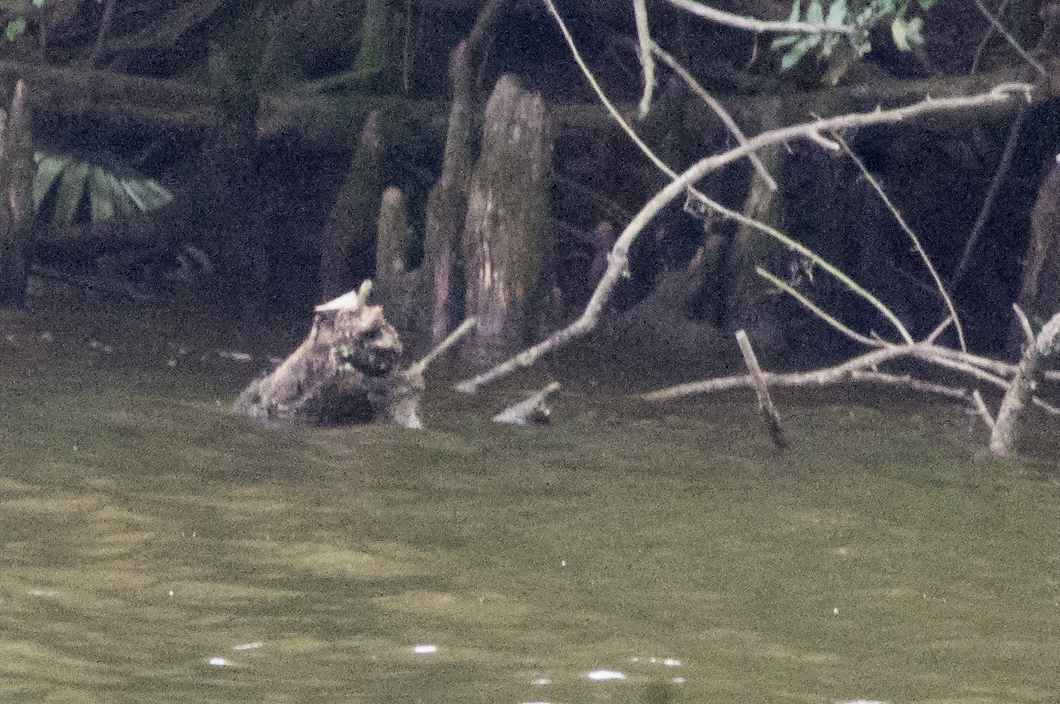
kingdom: Animalia
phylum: Chordata
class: Testudines
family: Emydidae
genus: Graptemys
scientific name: Graptemys sabinensis
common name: Sabine map turtle
